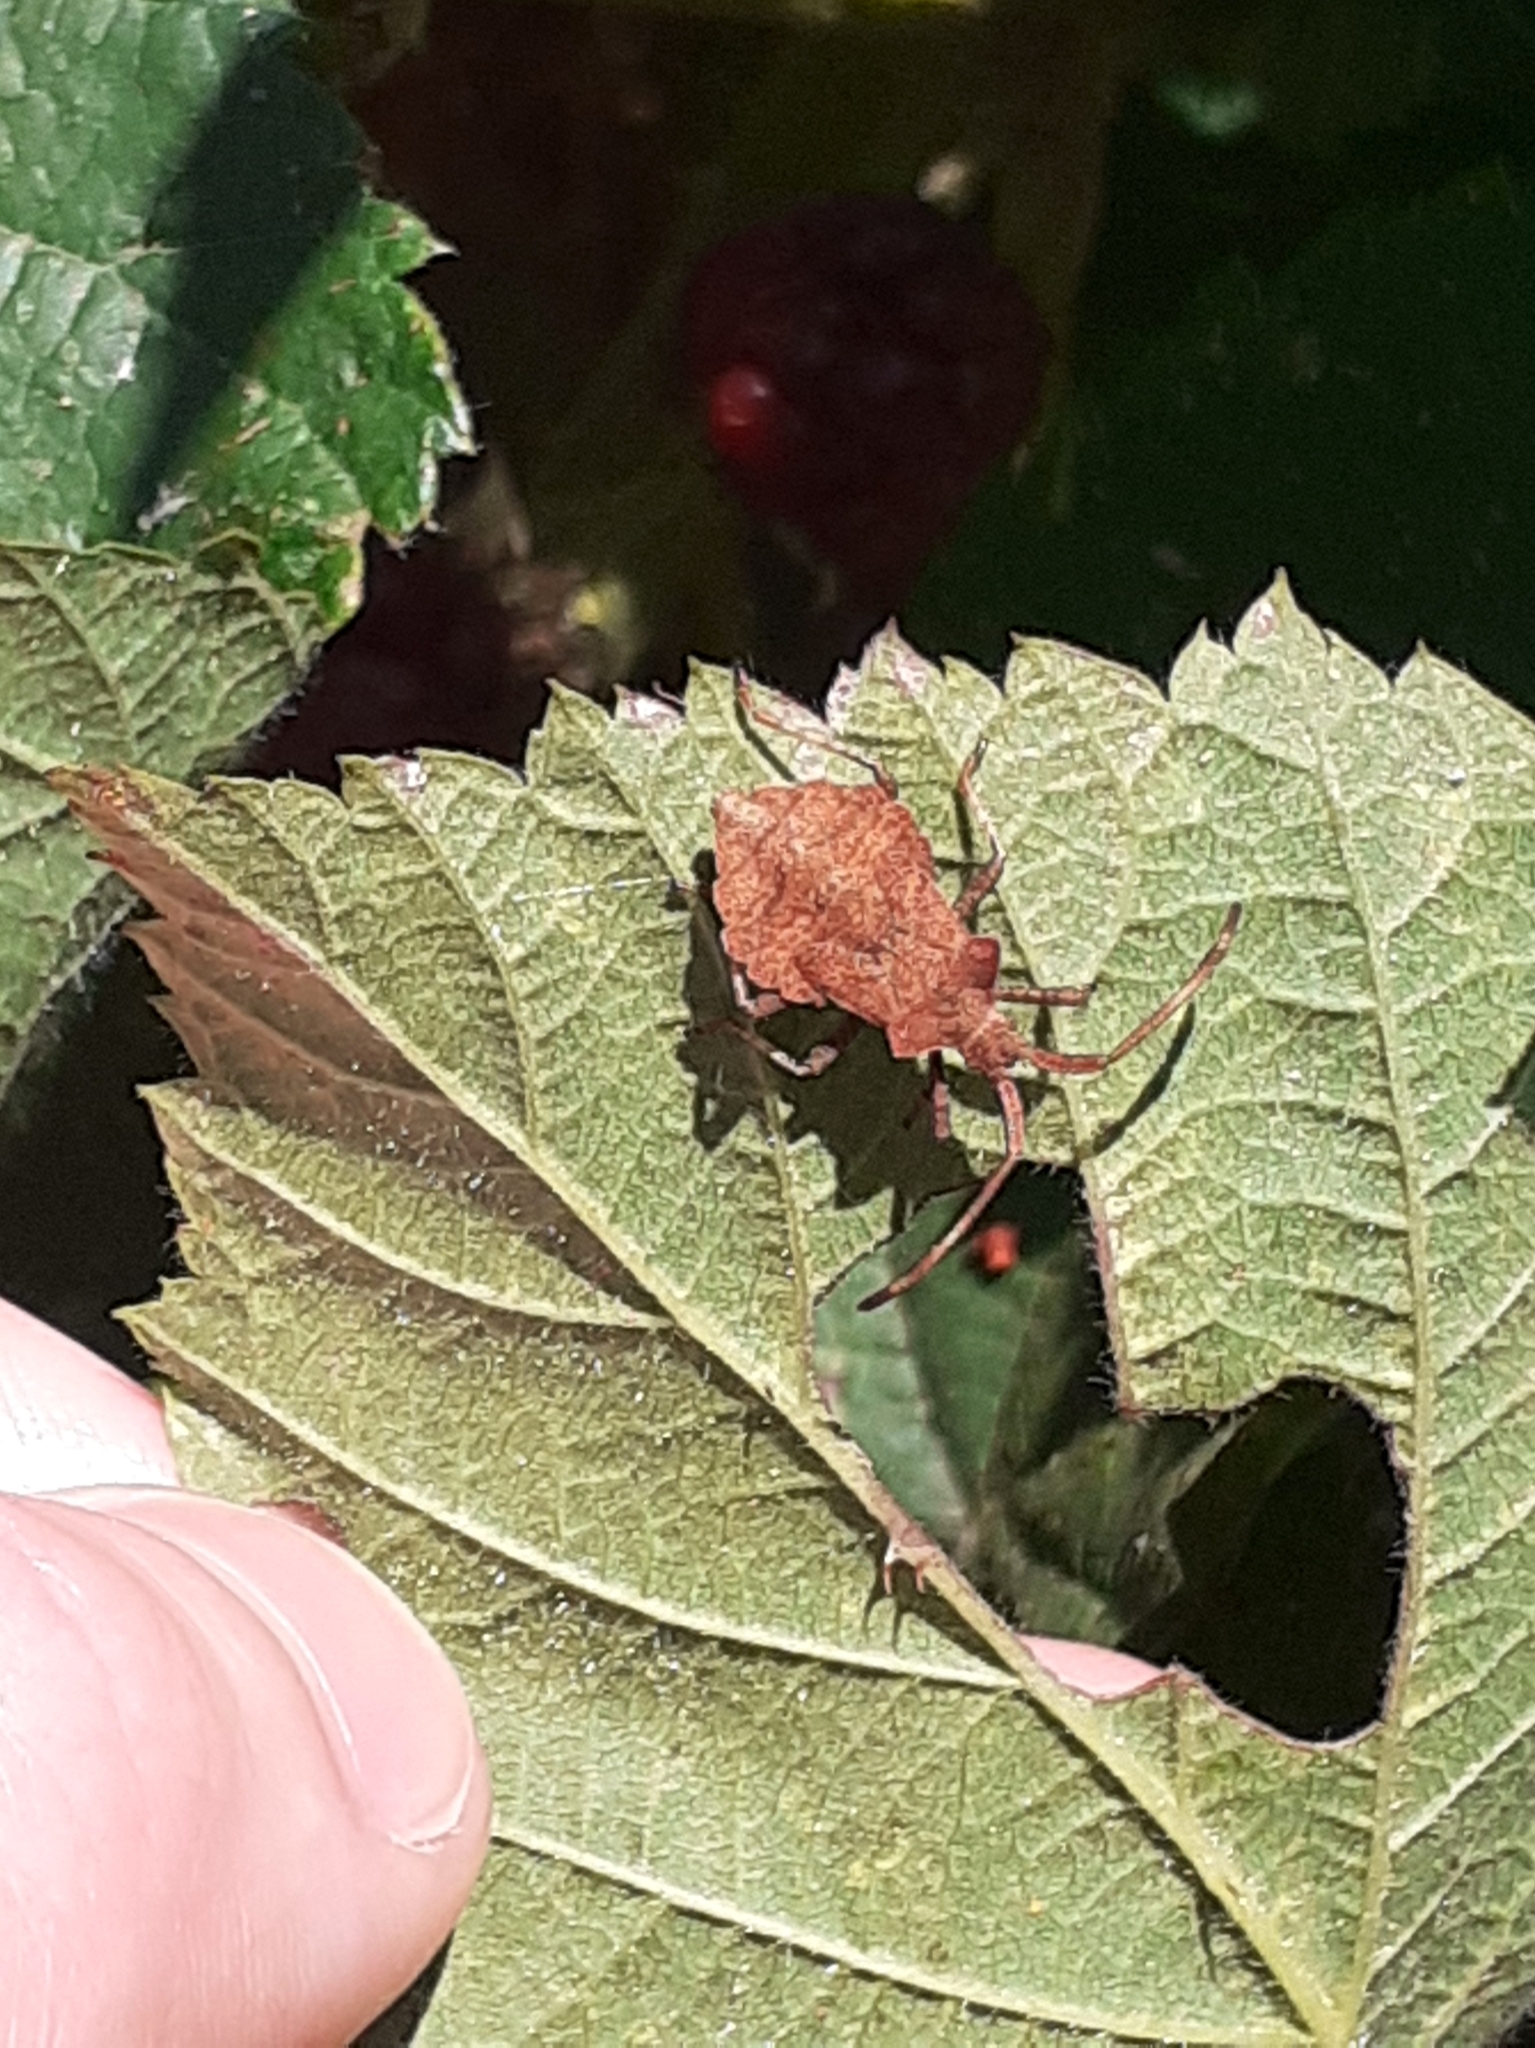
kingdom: Animalia
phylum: Arthropoda
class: Insecta
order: Hemiptera
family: Coreidae
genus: Coreus
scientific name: Coreus marginatus
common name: Dock bug
